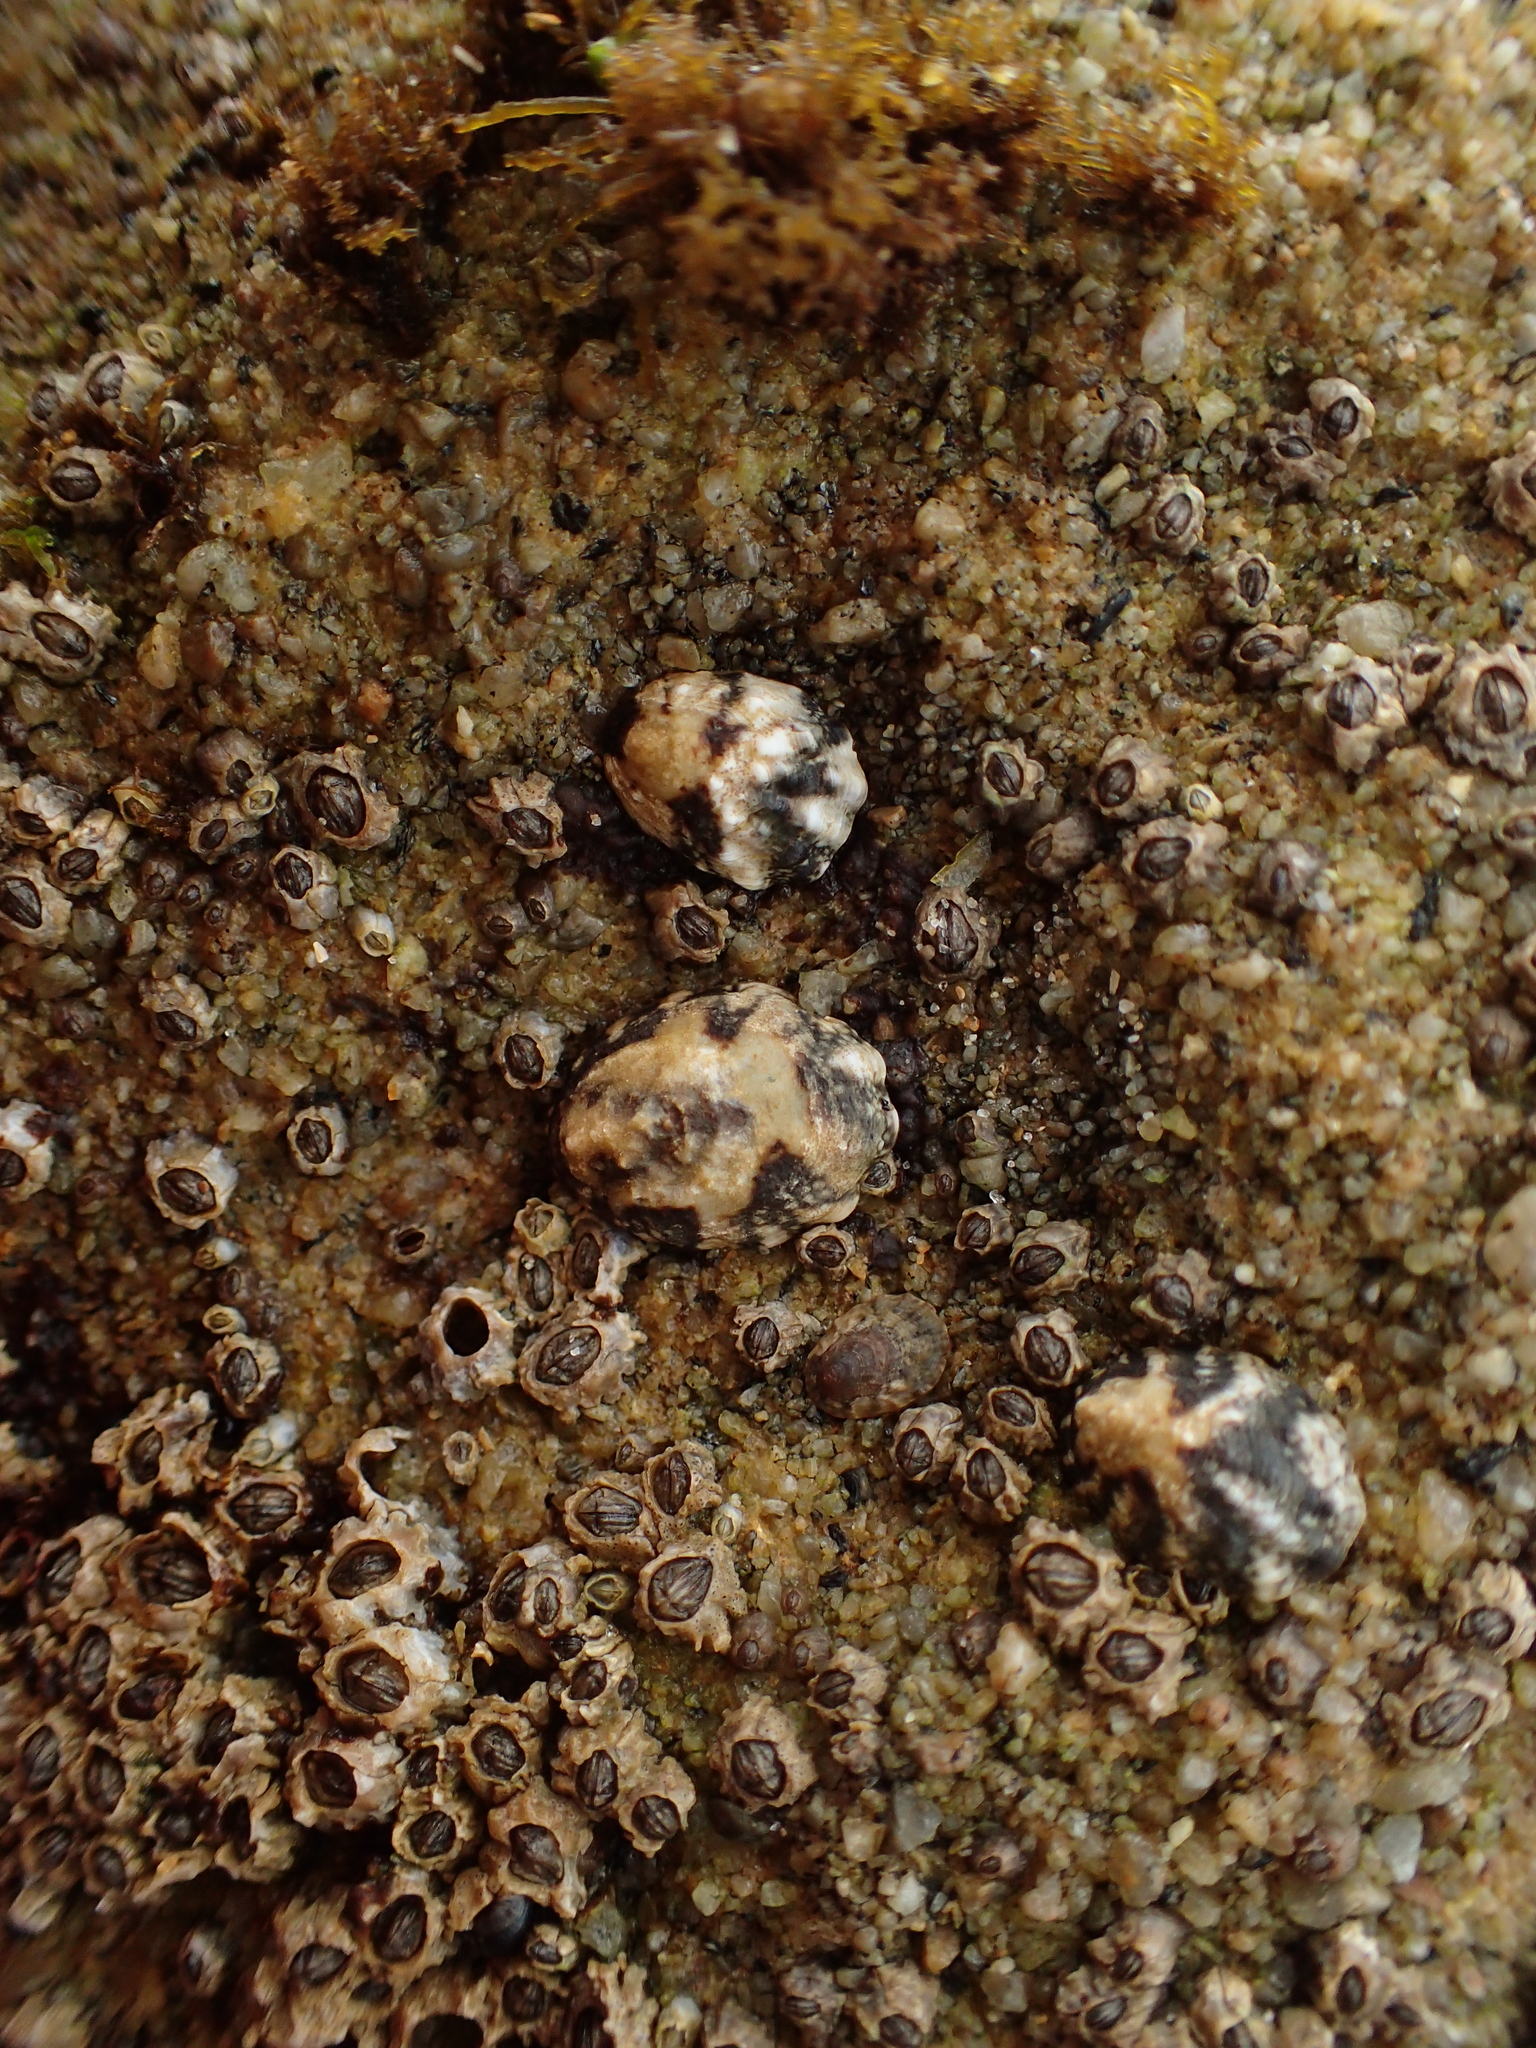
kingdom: Animalia
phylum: Mollusca
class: Gastropoda
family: Lottiidae
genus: Lottia
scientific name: Lottia digitalis
